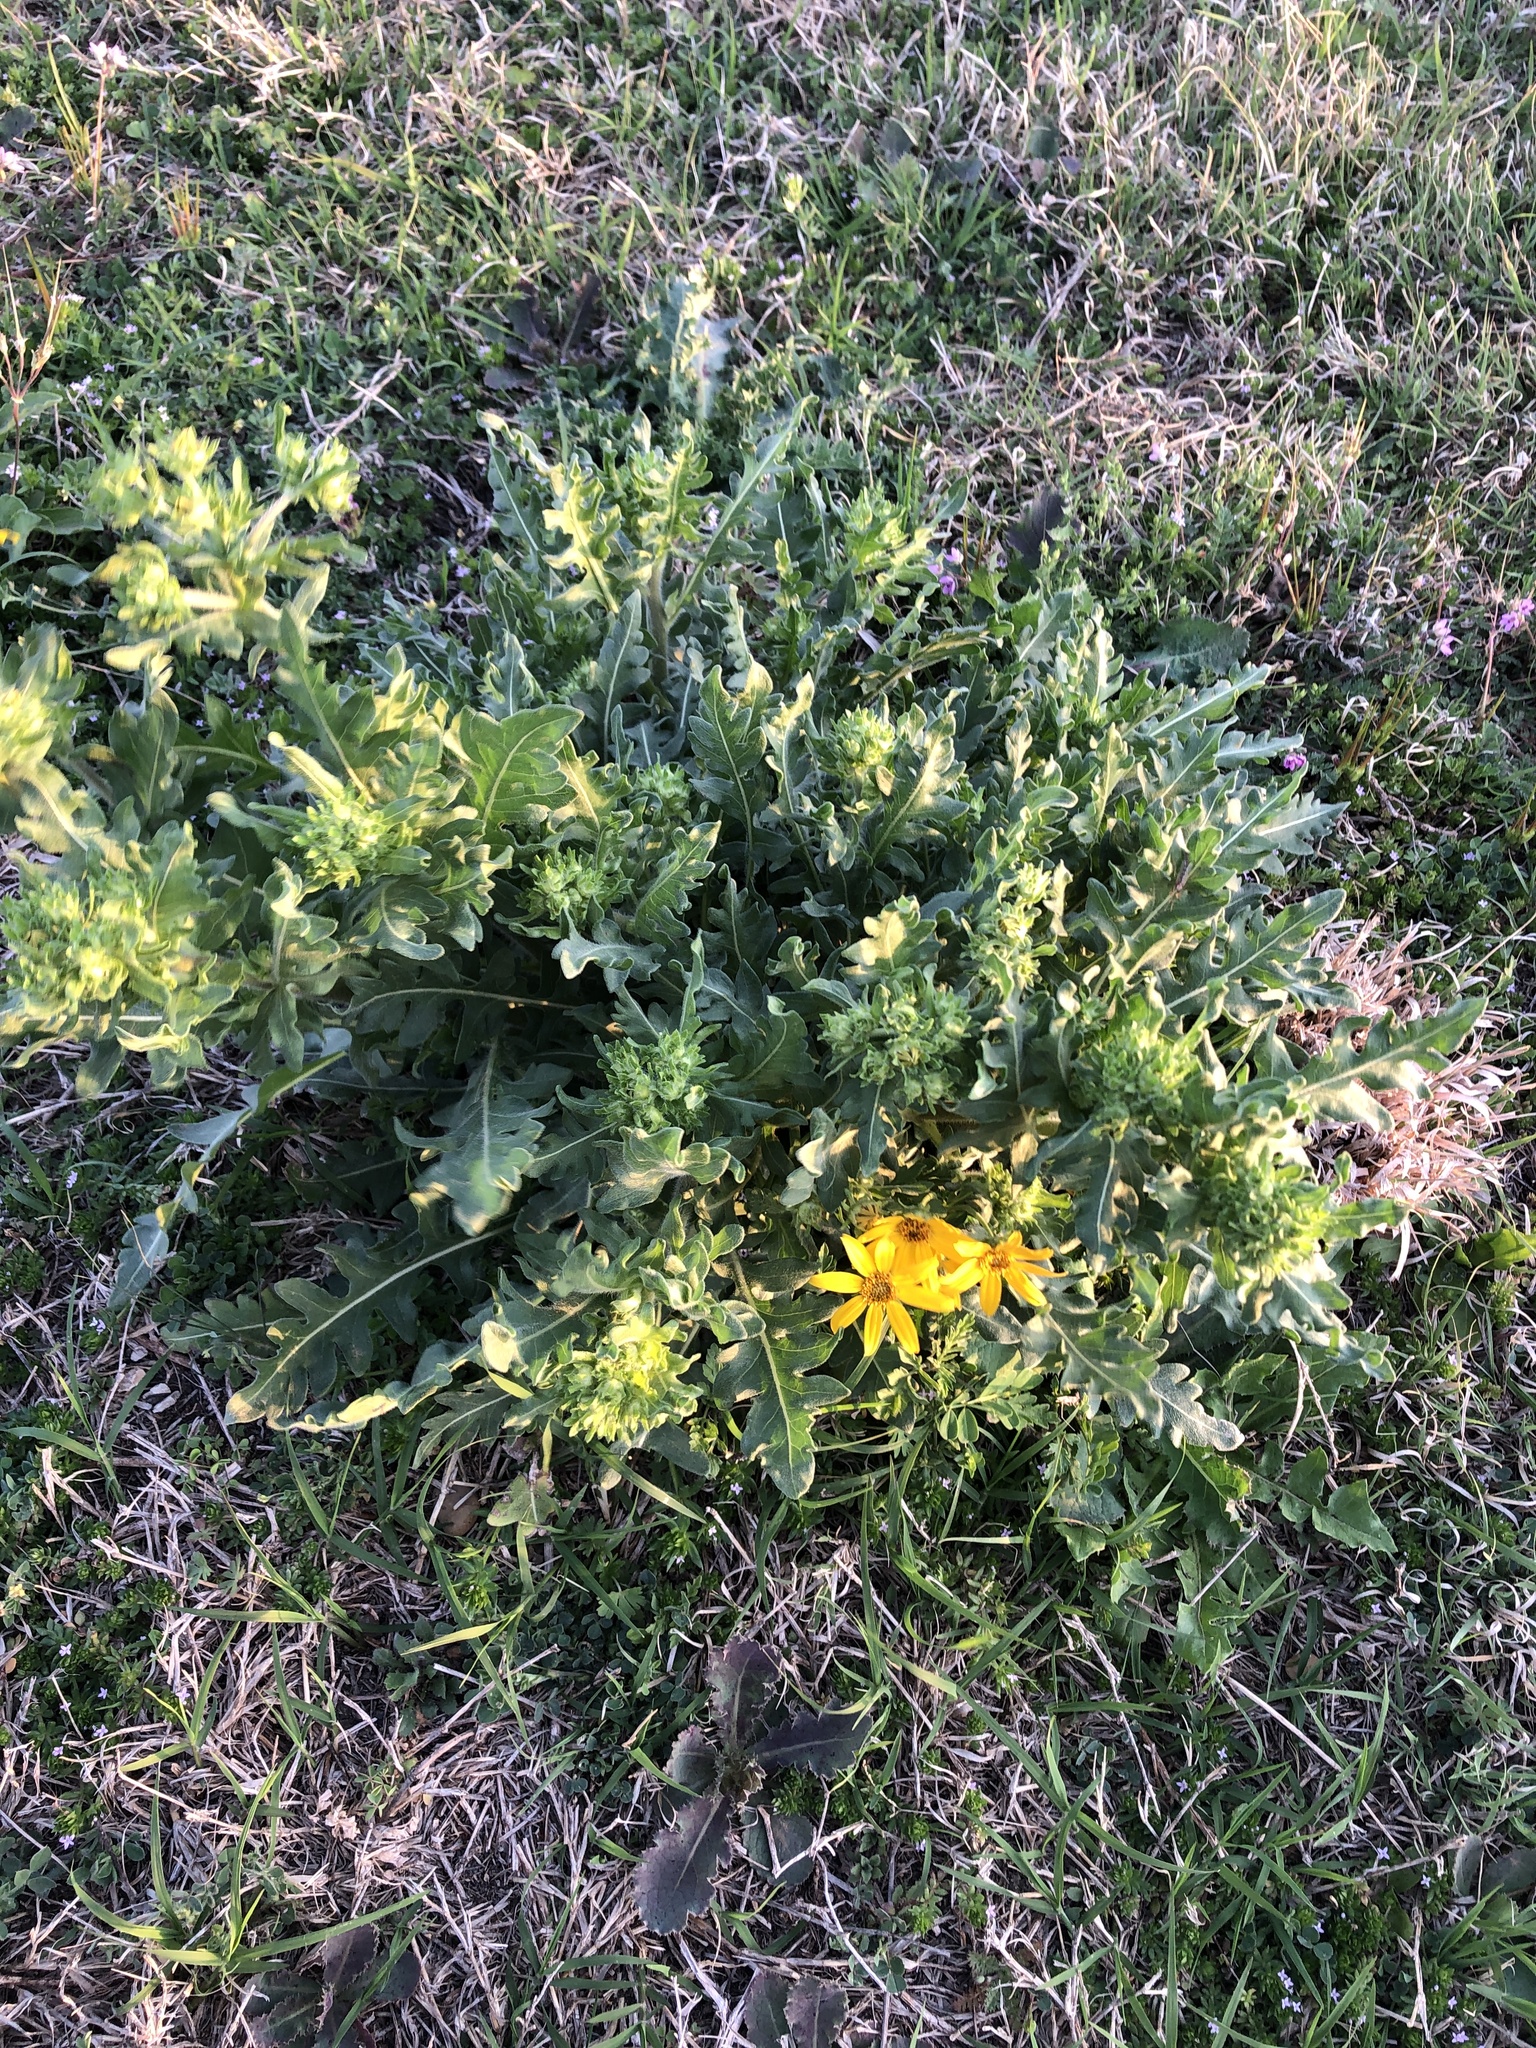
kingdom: Plantae
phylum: Tracheophyta
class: Magnoliopsida
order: Asterales
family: Asteraceae
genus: Engelmannia
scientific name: Engelmannia peristenia
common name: Engelmann's daisy
